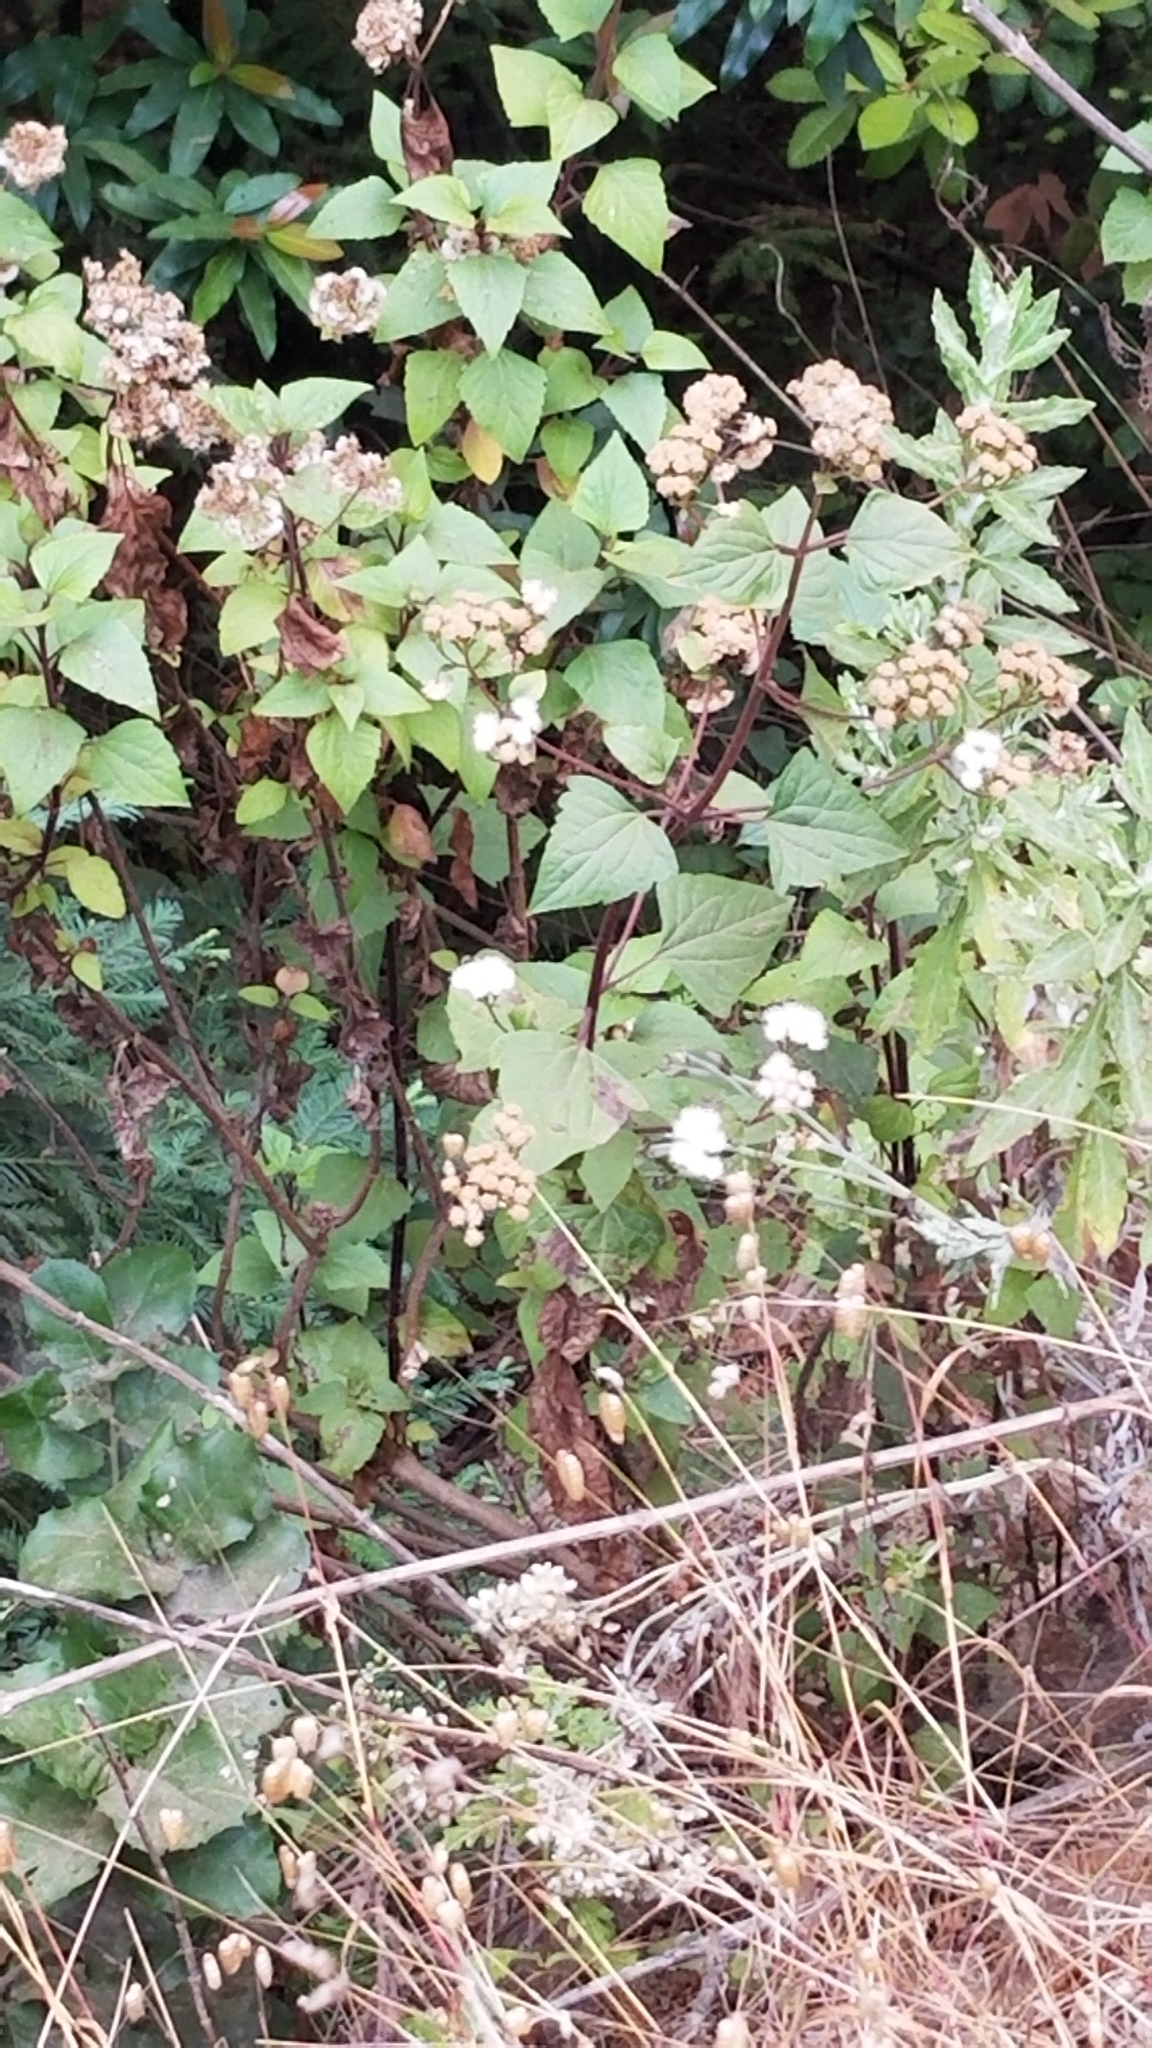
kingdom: Plantae
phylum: Tracheophyta
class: Magnoliopsida
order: Asterales
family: Asteraceae
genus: Ageratina
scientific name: Ageratina adenophora
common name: Sticky snakeroot
